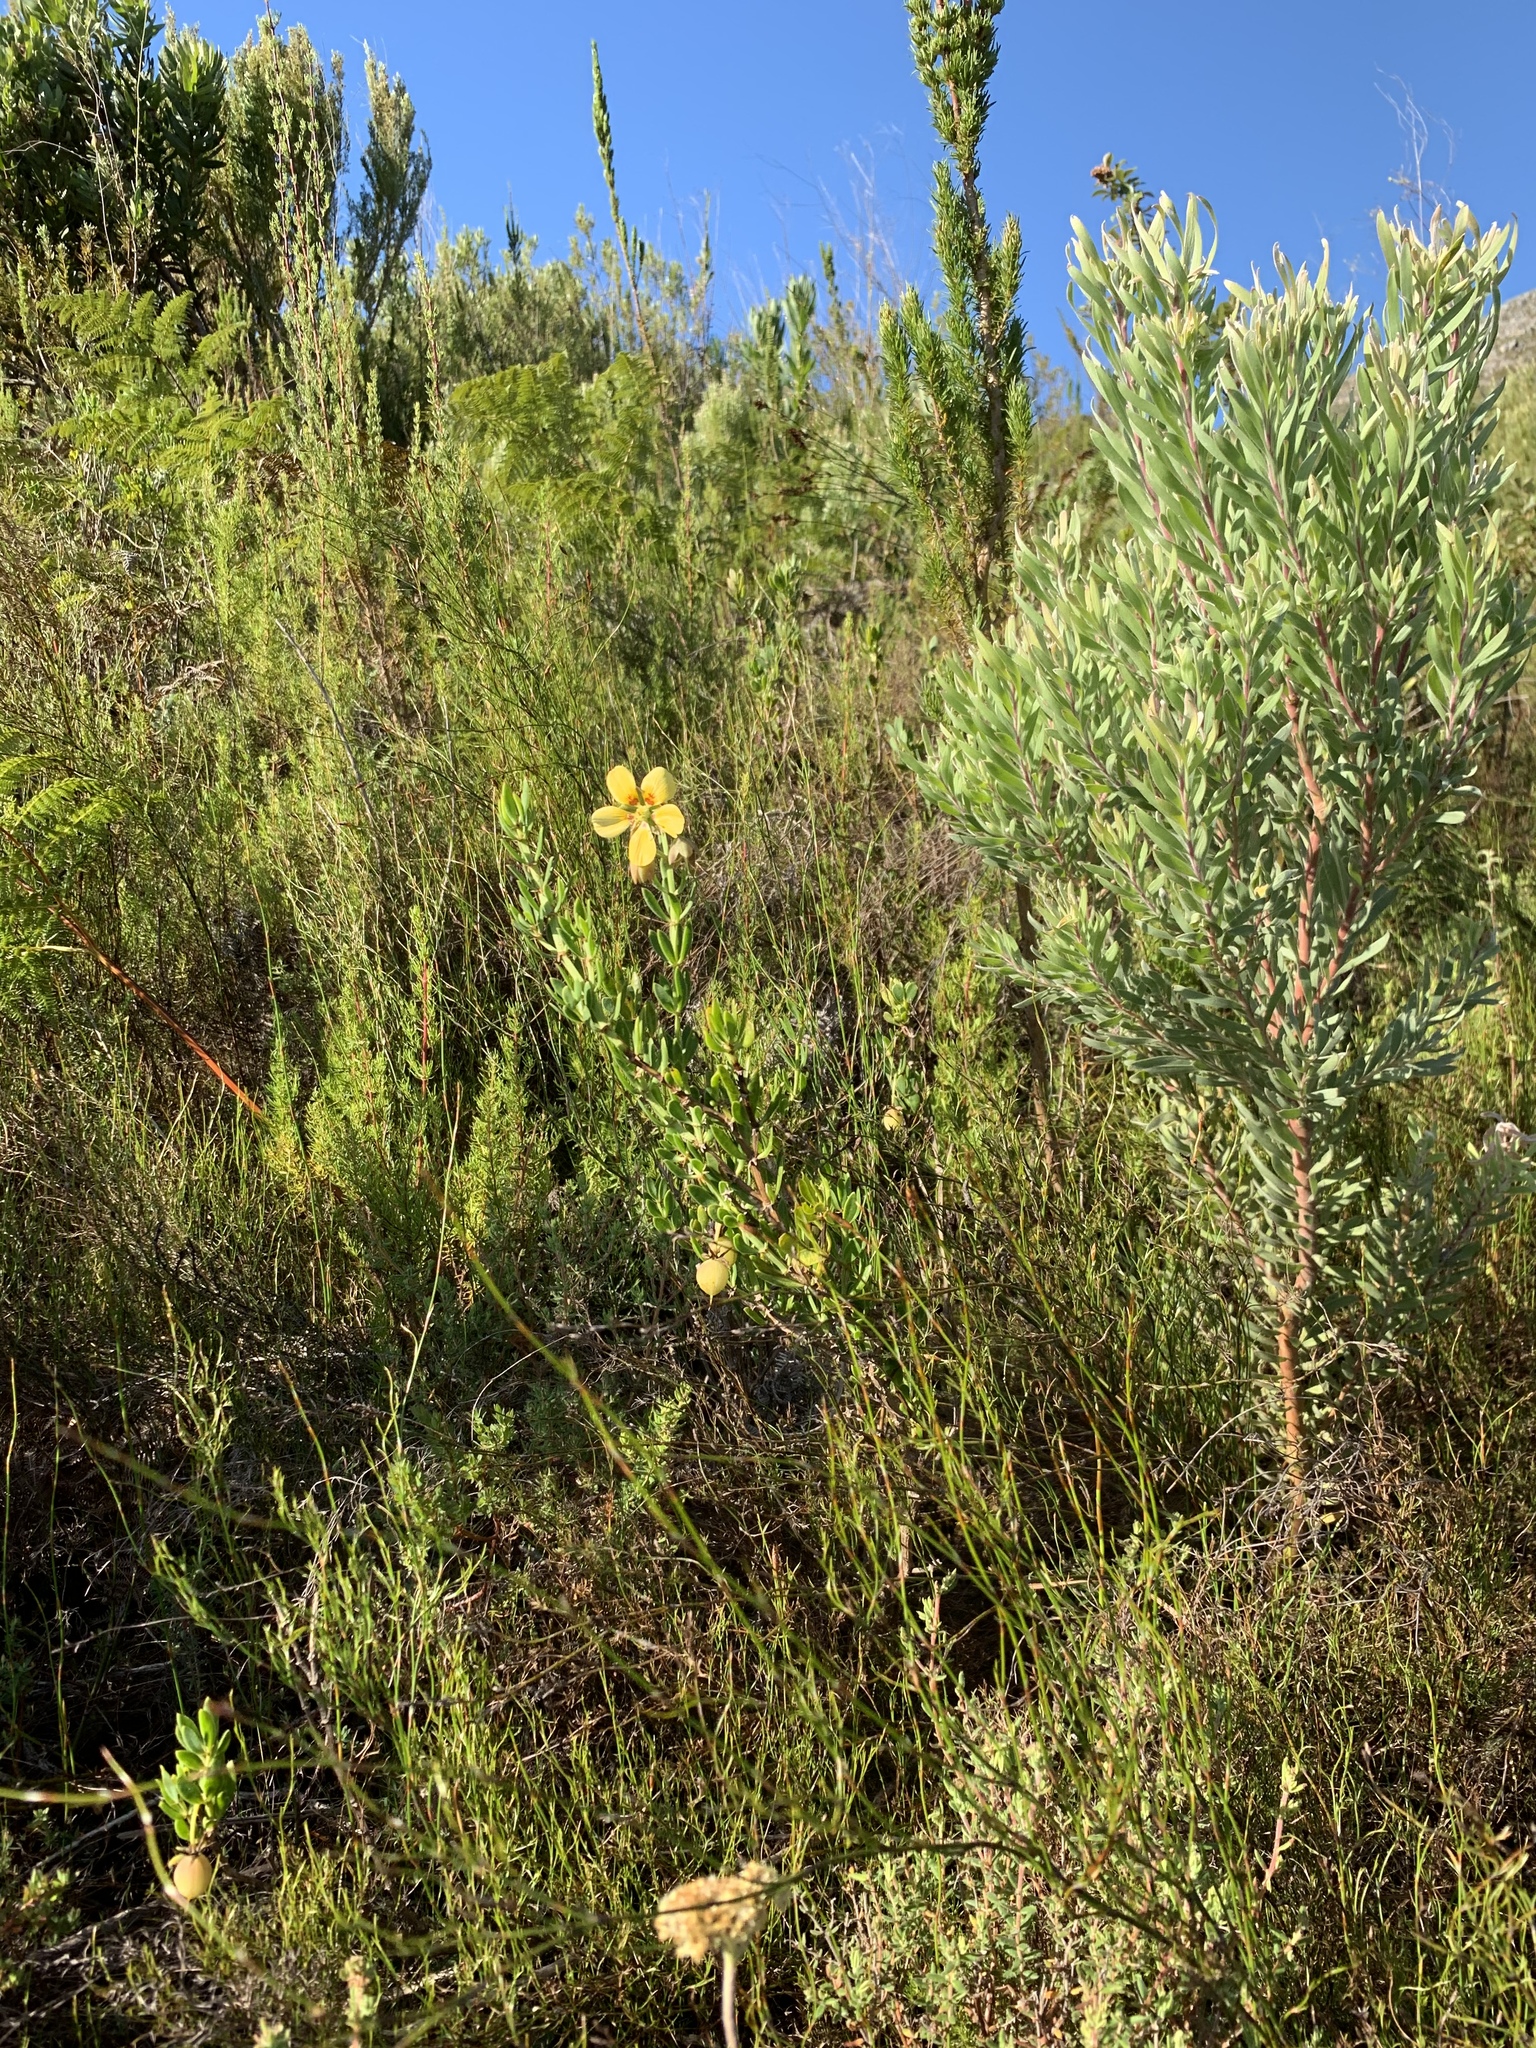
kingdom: Plantae
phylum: Tracheophyta
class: Magnoliopsida
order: Zygophyllales
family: Zygophyllaceae
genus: Roepera
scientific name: Roepera fulva
